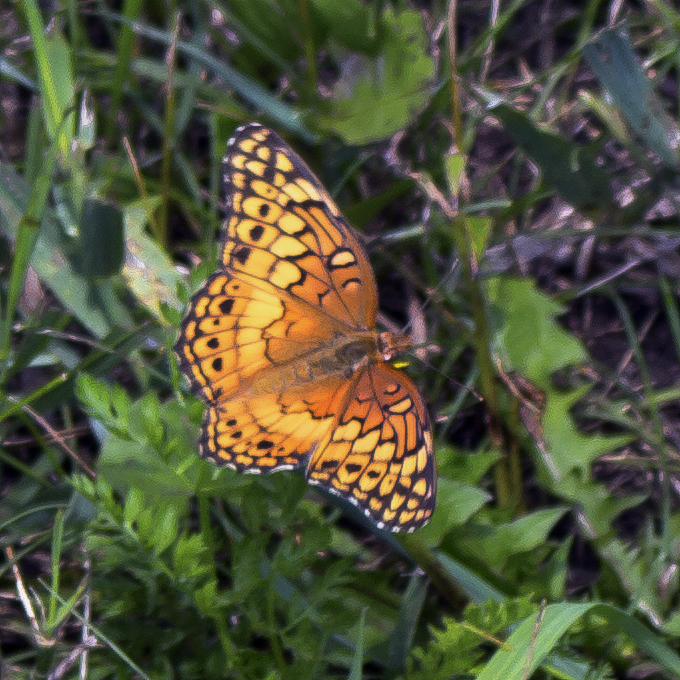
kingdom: Animalia
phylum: Arthropoda
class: Insecta
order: Lepidoptera
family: Nymphalidae
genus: Euptoieta
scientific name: Euptoieta claudia
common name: Variegated fritillary
